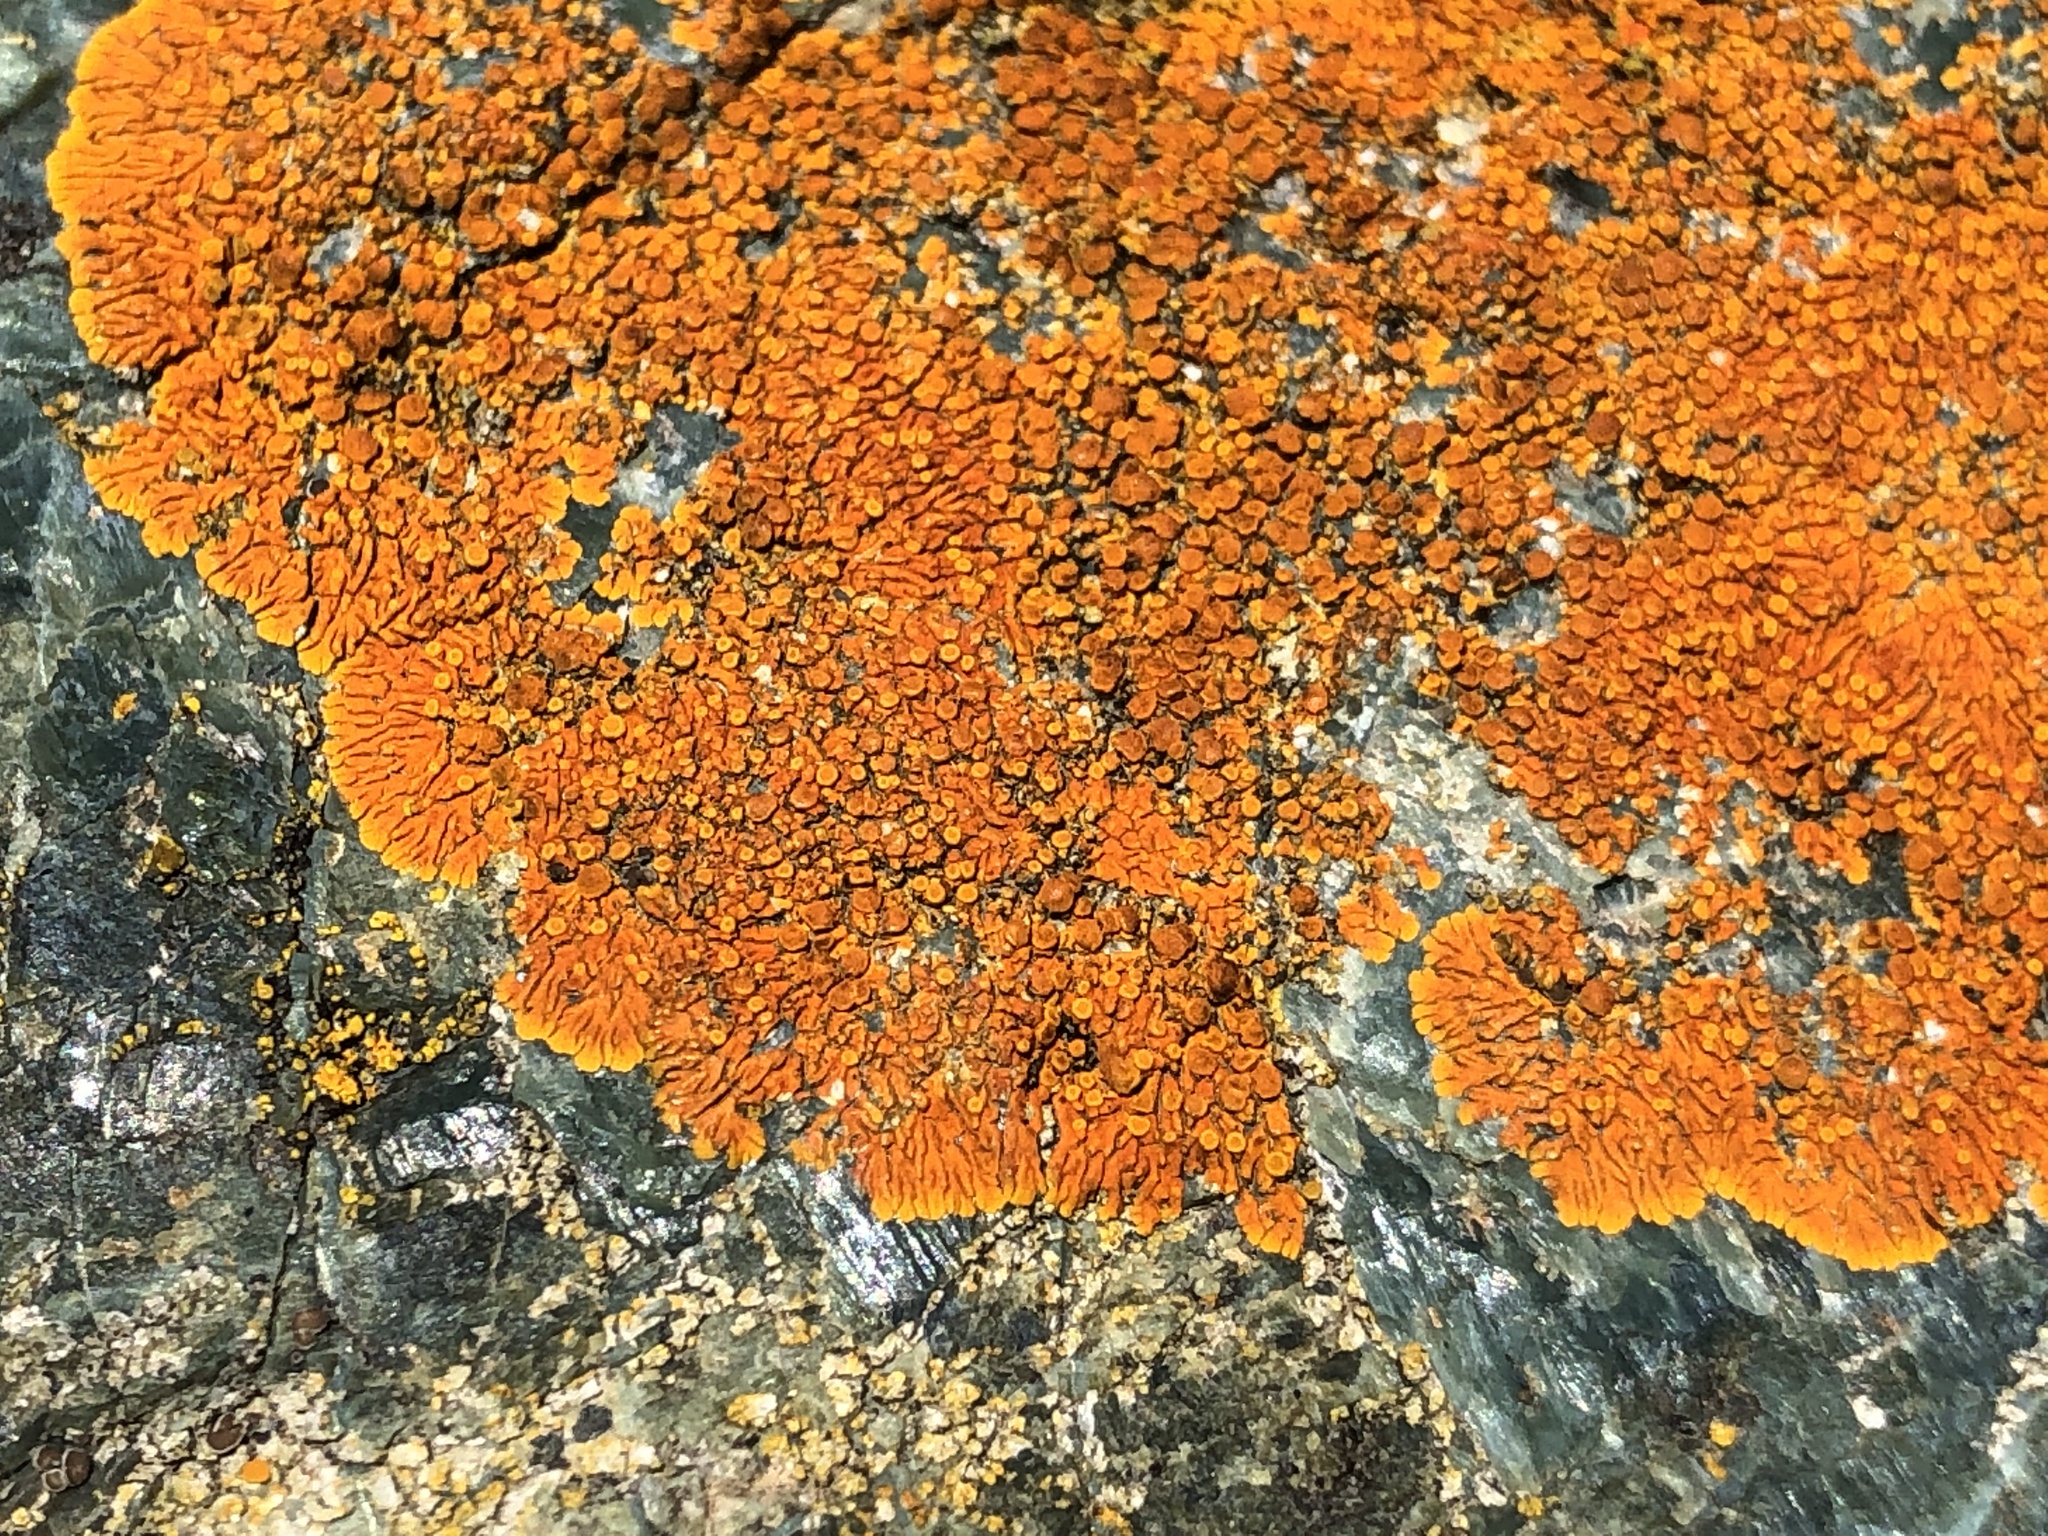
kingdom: Fungi
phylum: Ascomycota
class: Lecanoromycetes
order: Teloschistales
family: Teloschistaceae
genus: Xanthoria
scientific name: Xanthoria elegans
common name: Elegant sunburst lichen
